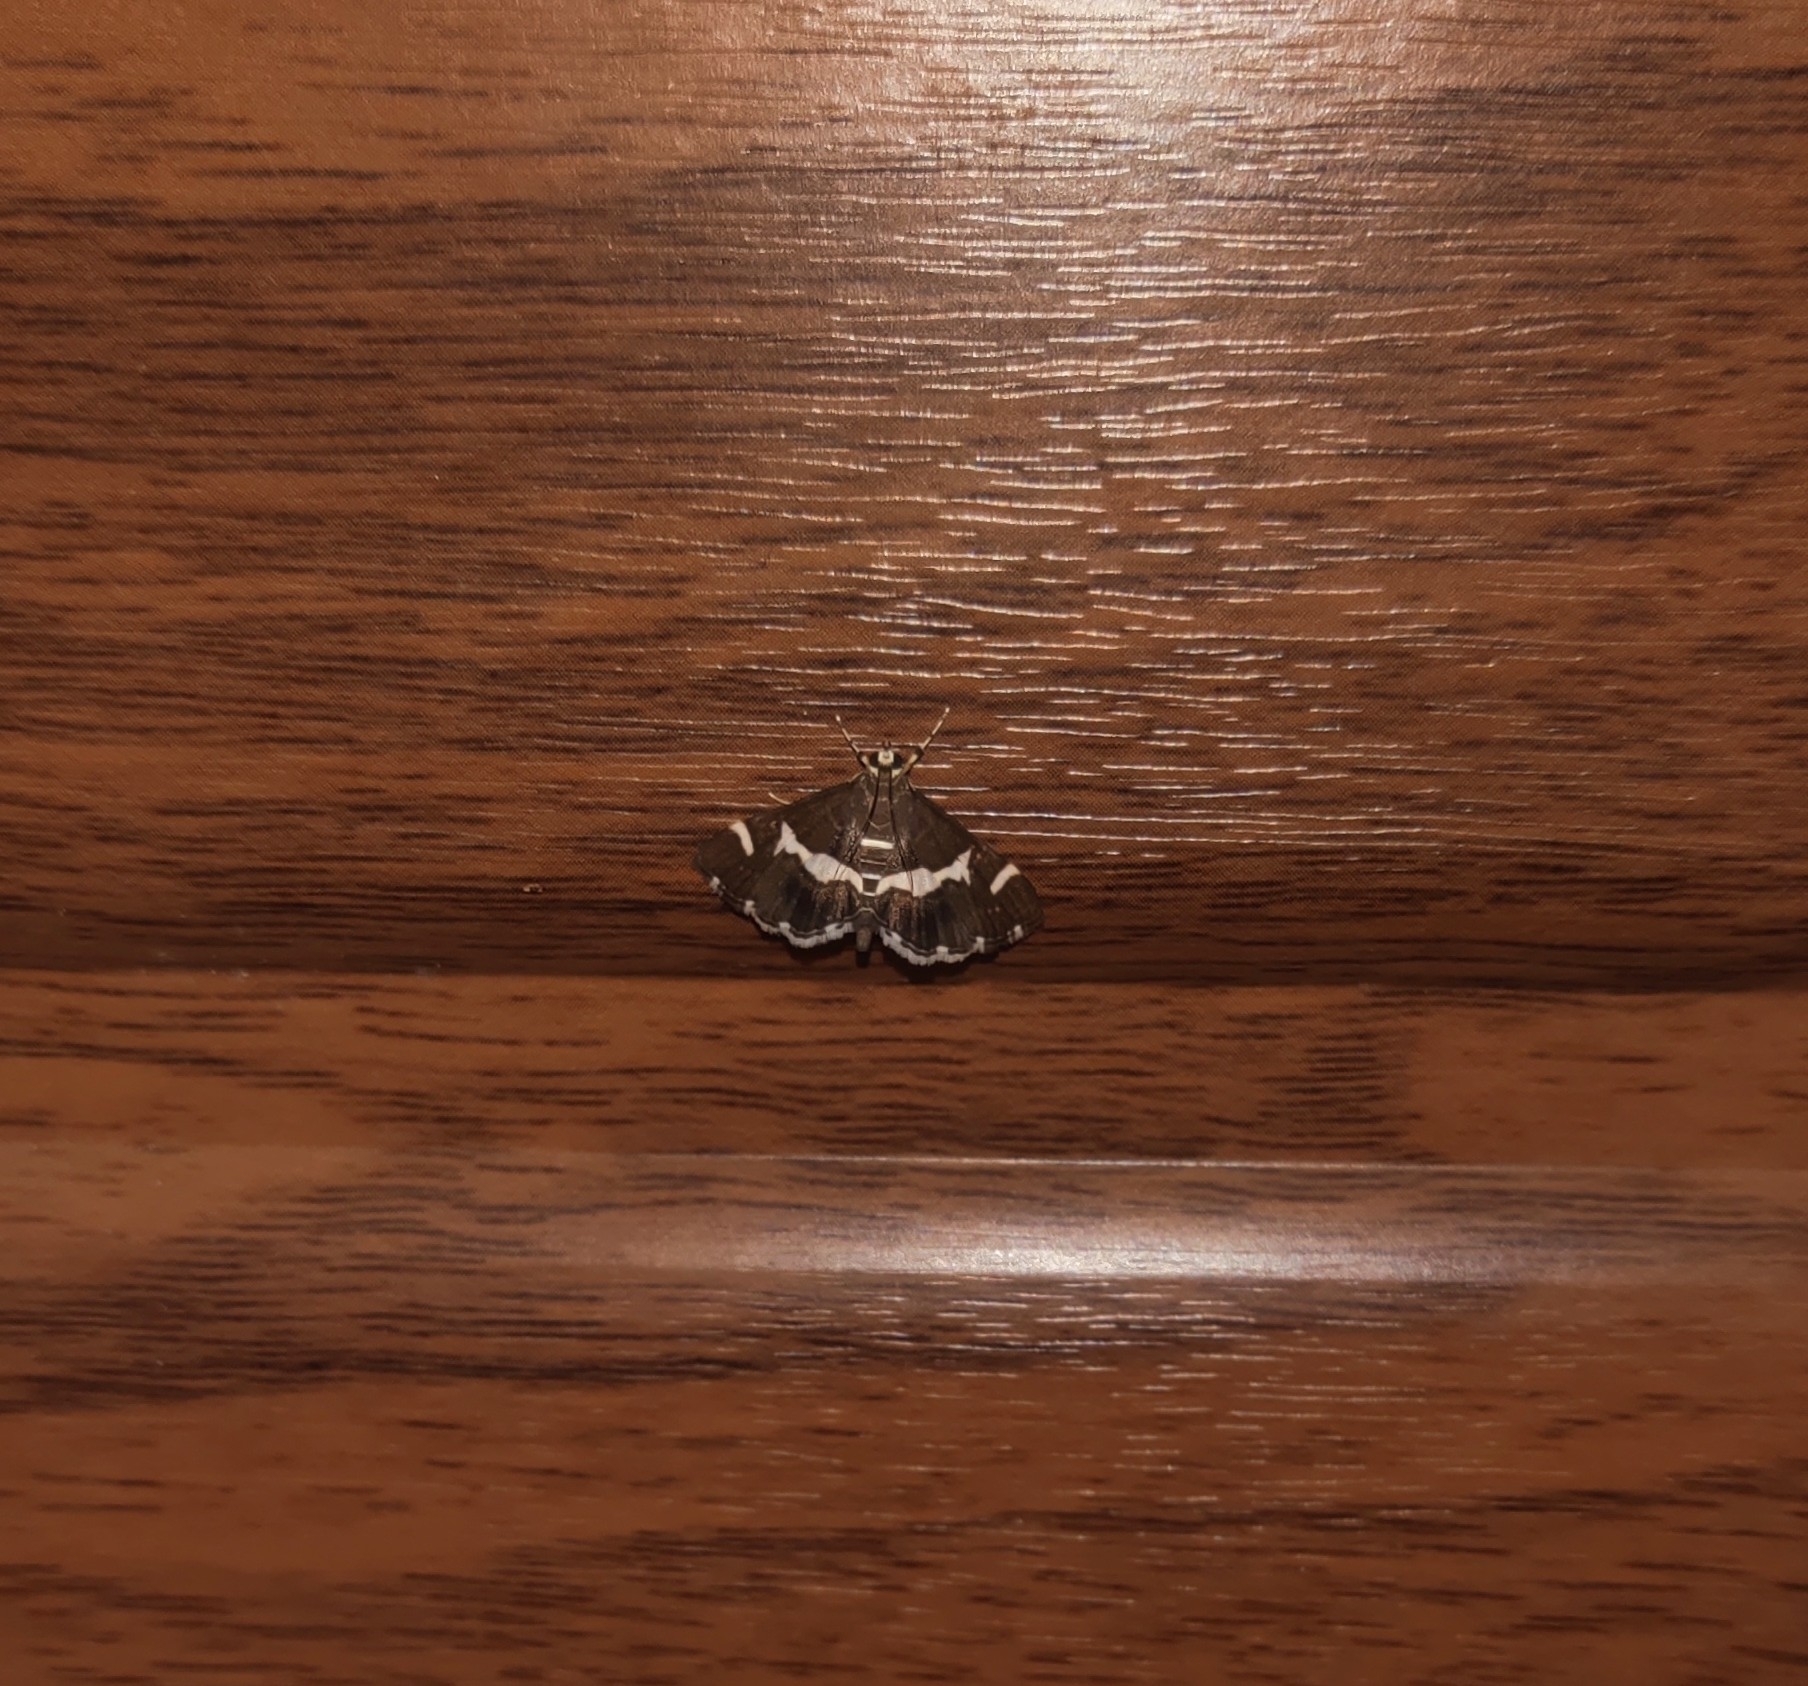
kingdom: Animalia
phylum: Arthropoda
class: Insecta
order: Lepidoptera
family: Crambidae
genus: Spoladea
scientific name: Spoladea recurvalis
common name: Beet webworm moth
